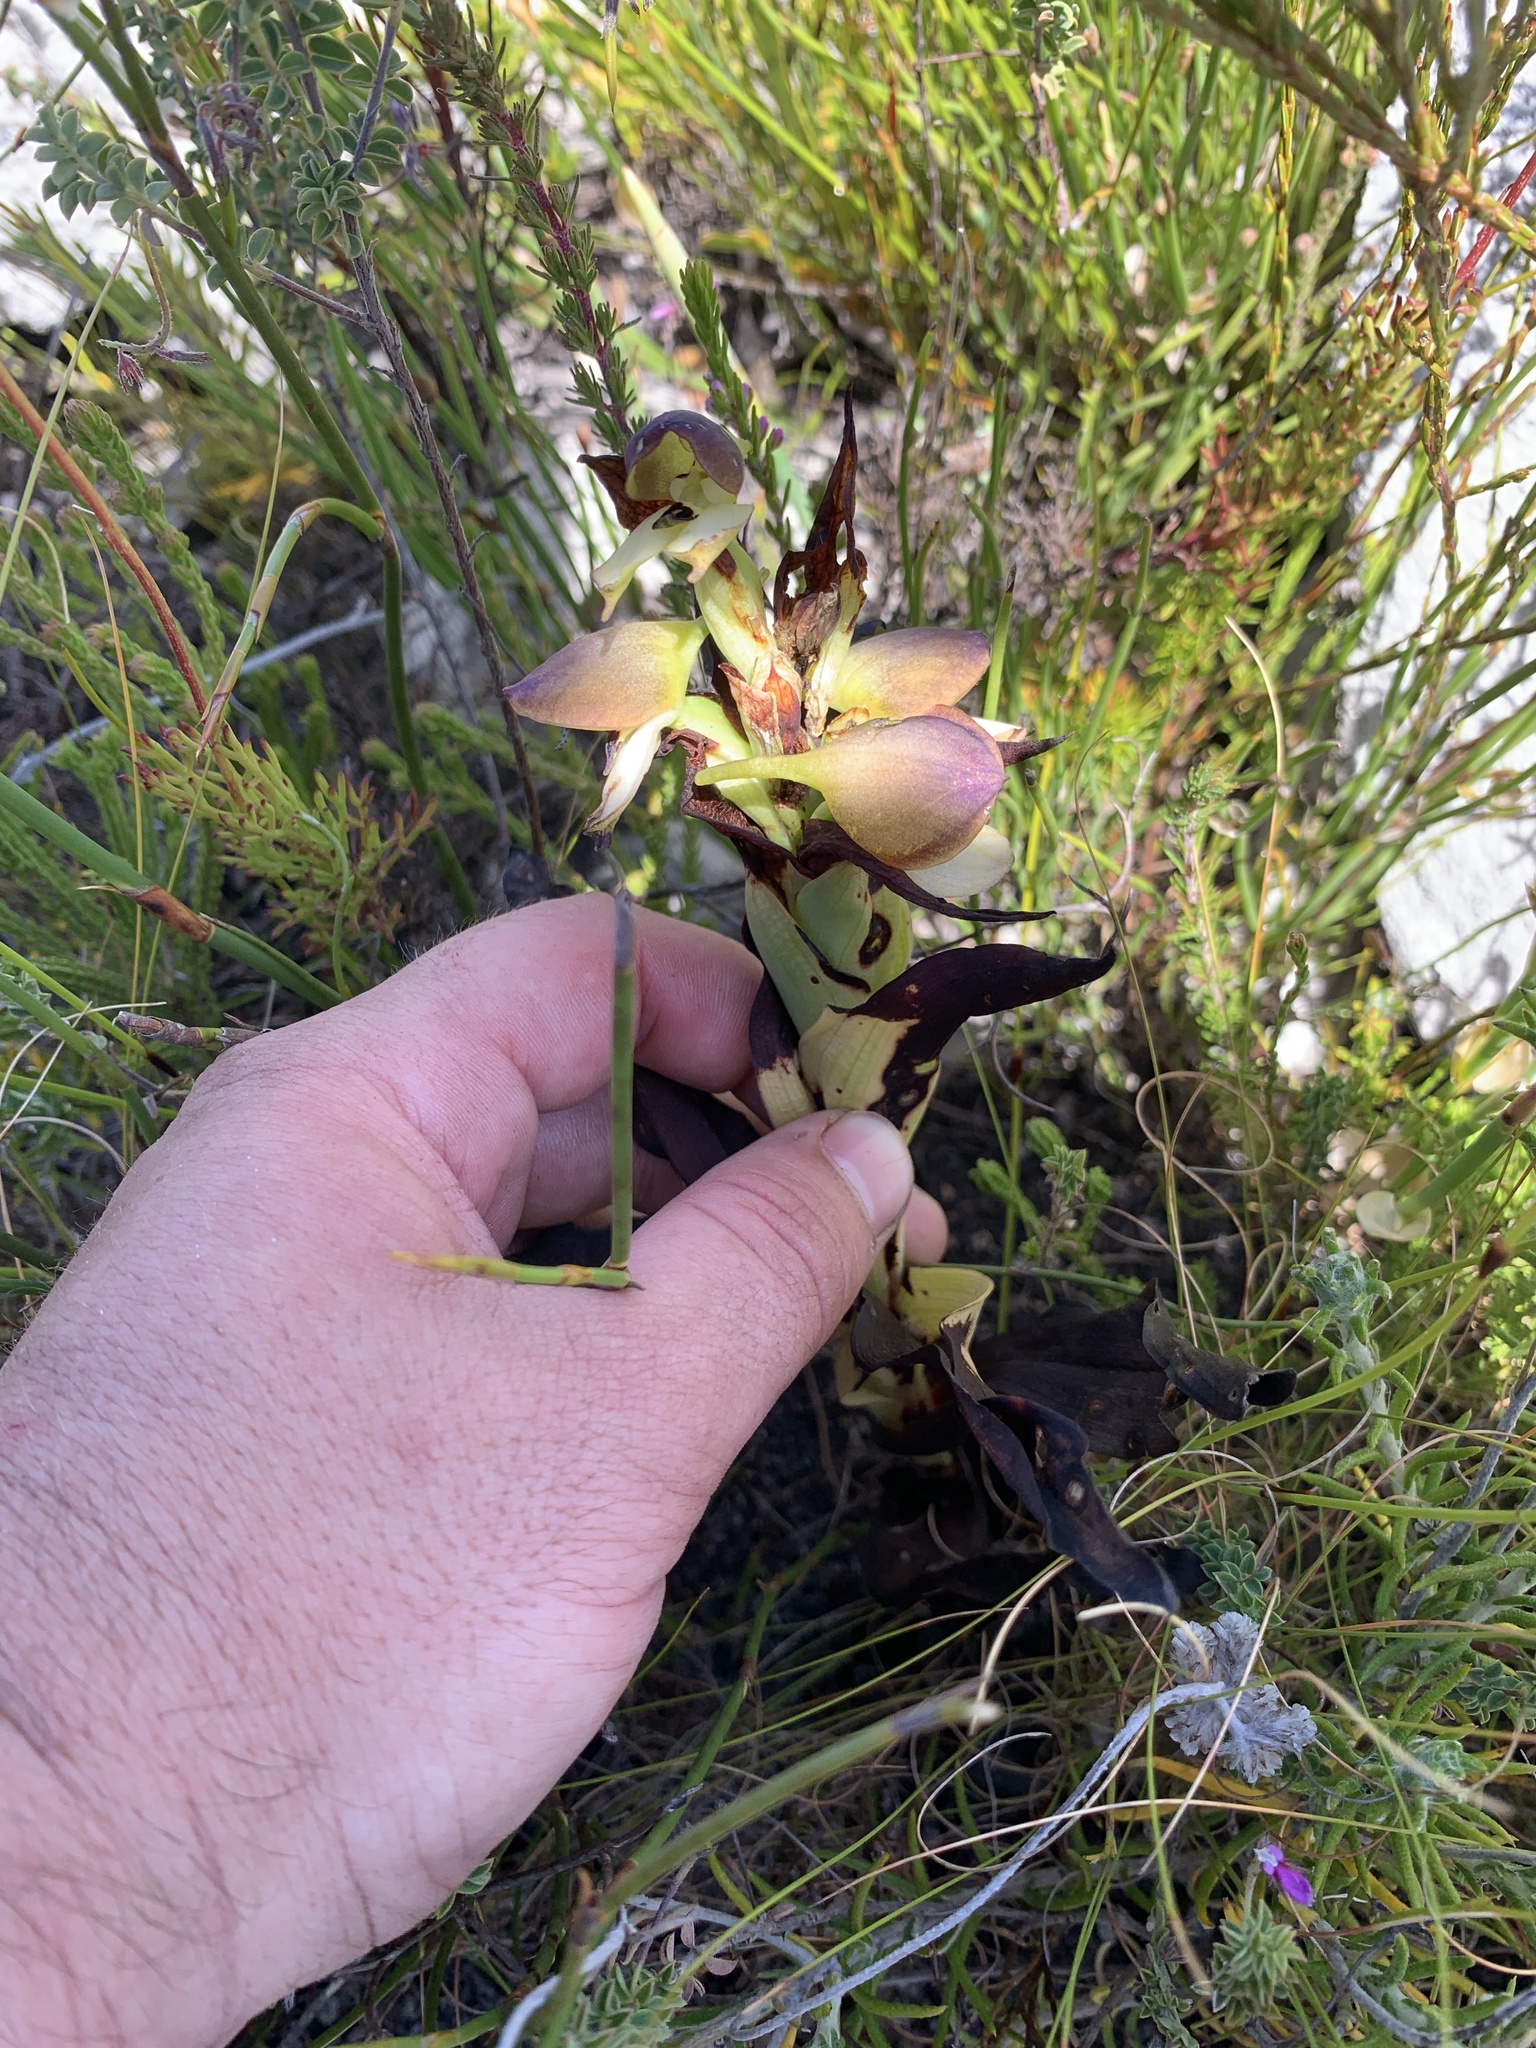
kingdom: Plantae
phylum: Tracheophyta
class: Liliopsida
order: Asparagales
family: Orchidaceae
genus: Disa
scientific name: Disa cornuta
